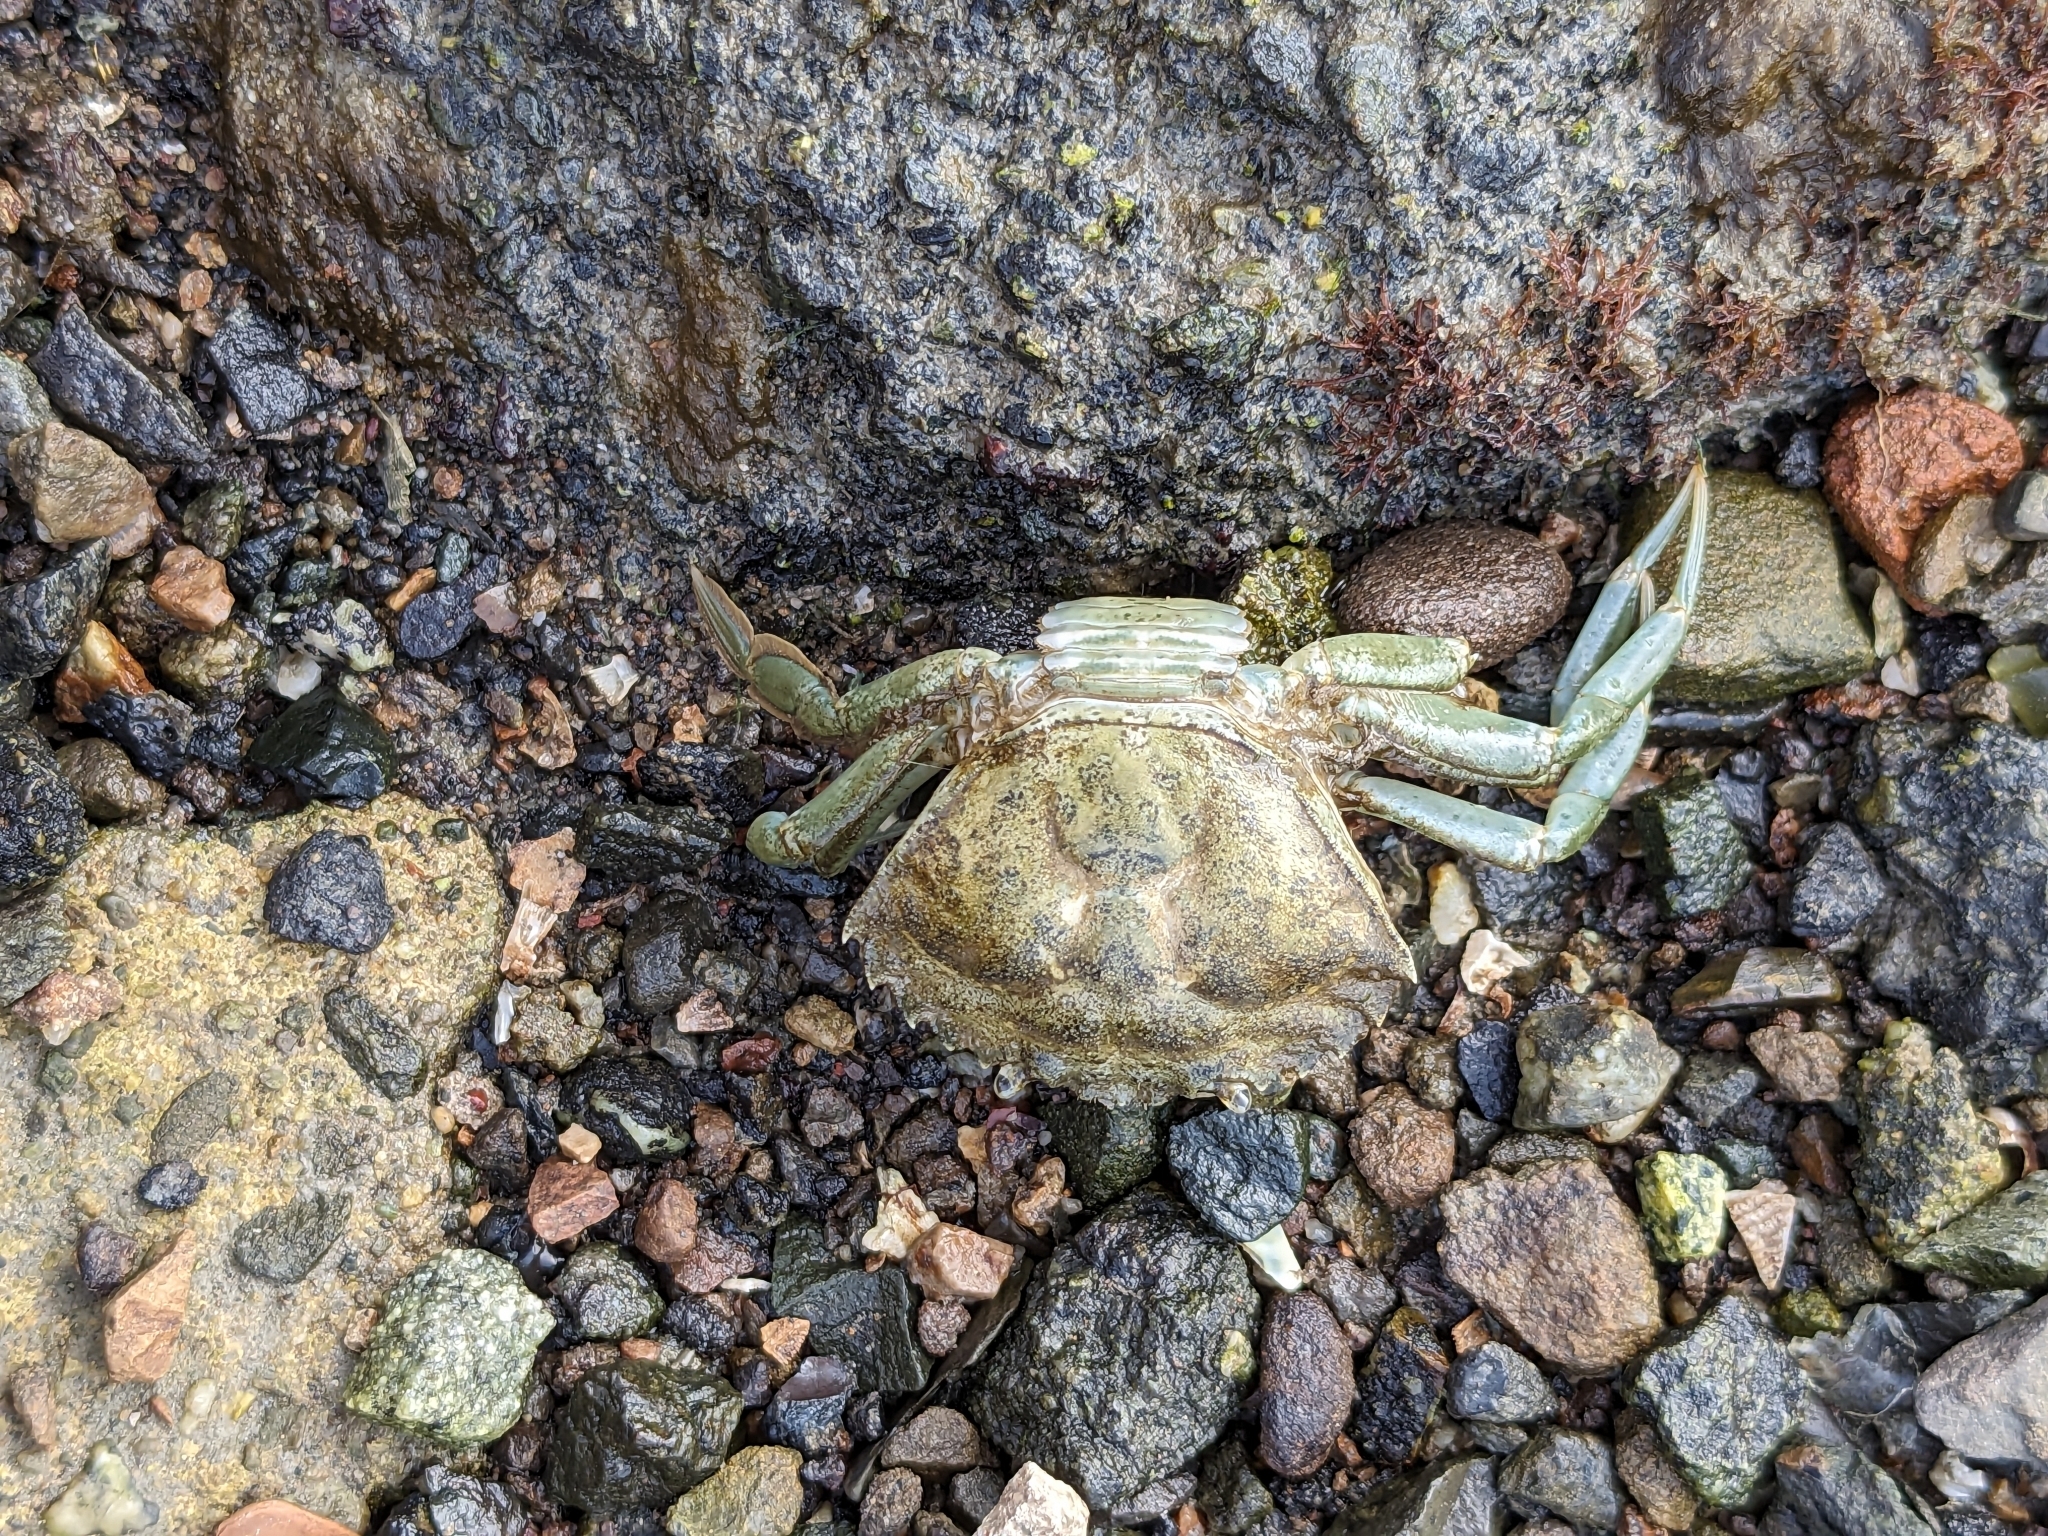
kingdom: Animalia
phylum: Arthropoda
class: Malacostraca
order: Decapoda
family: Carcinidae
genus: Carcinus
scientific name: Carcinus maenas
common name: European green crab
